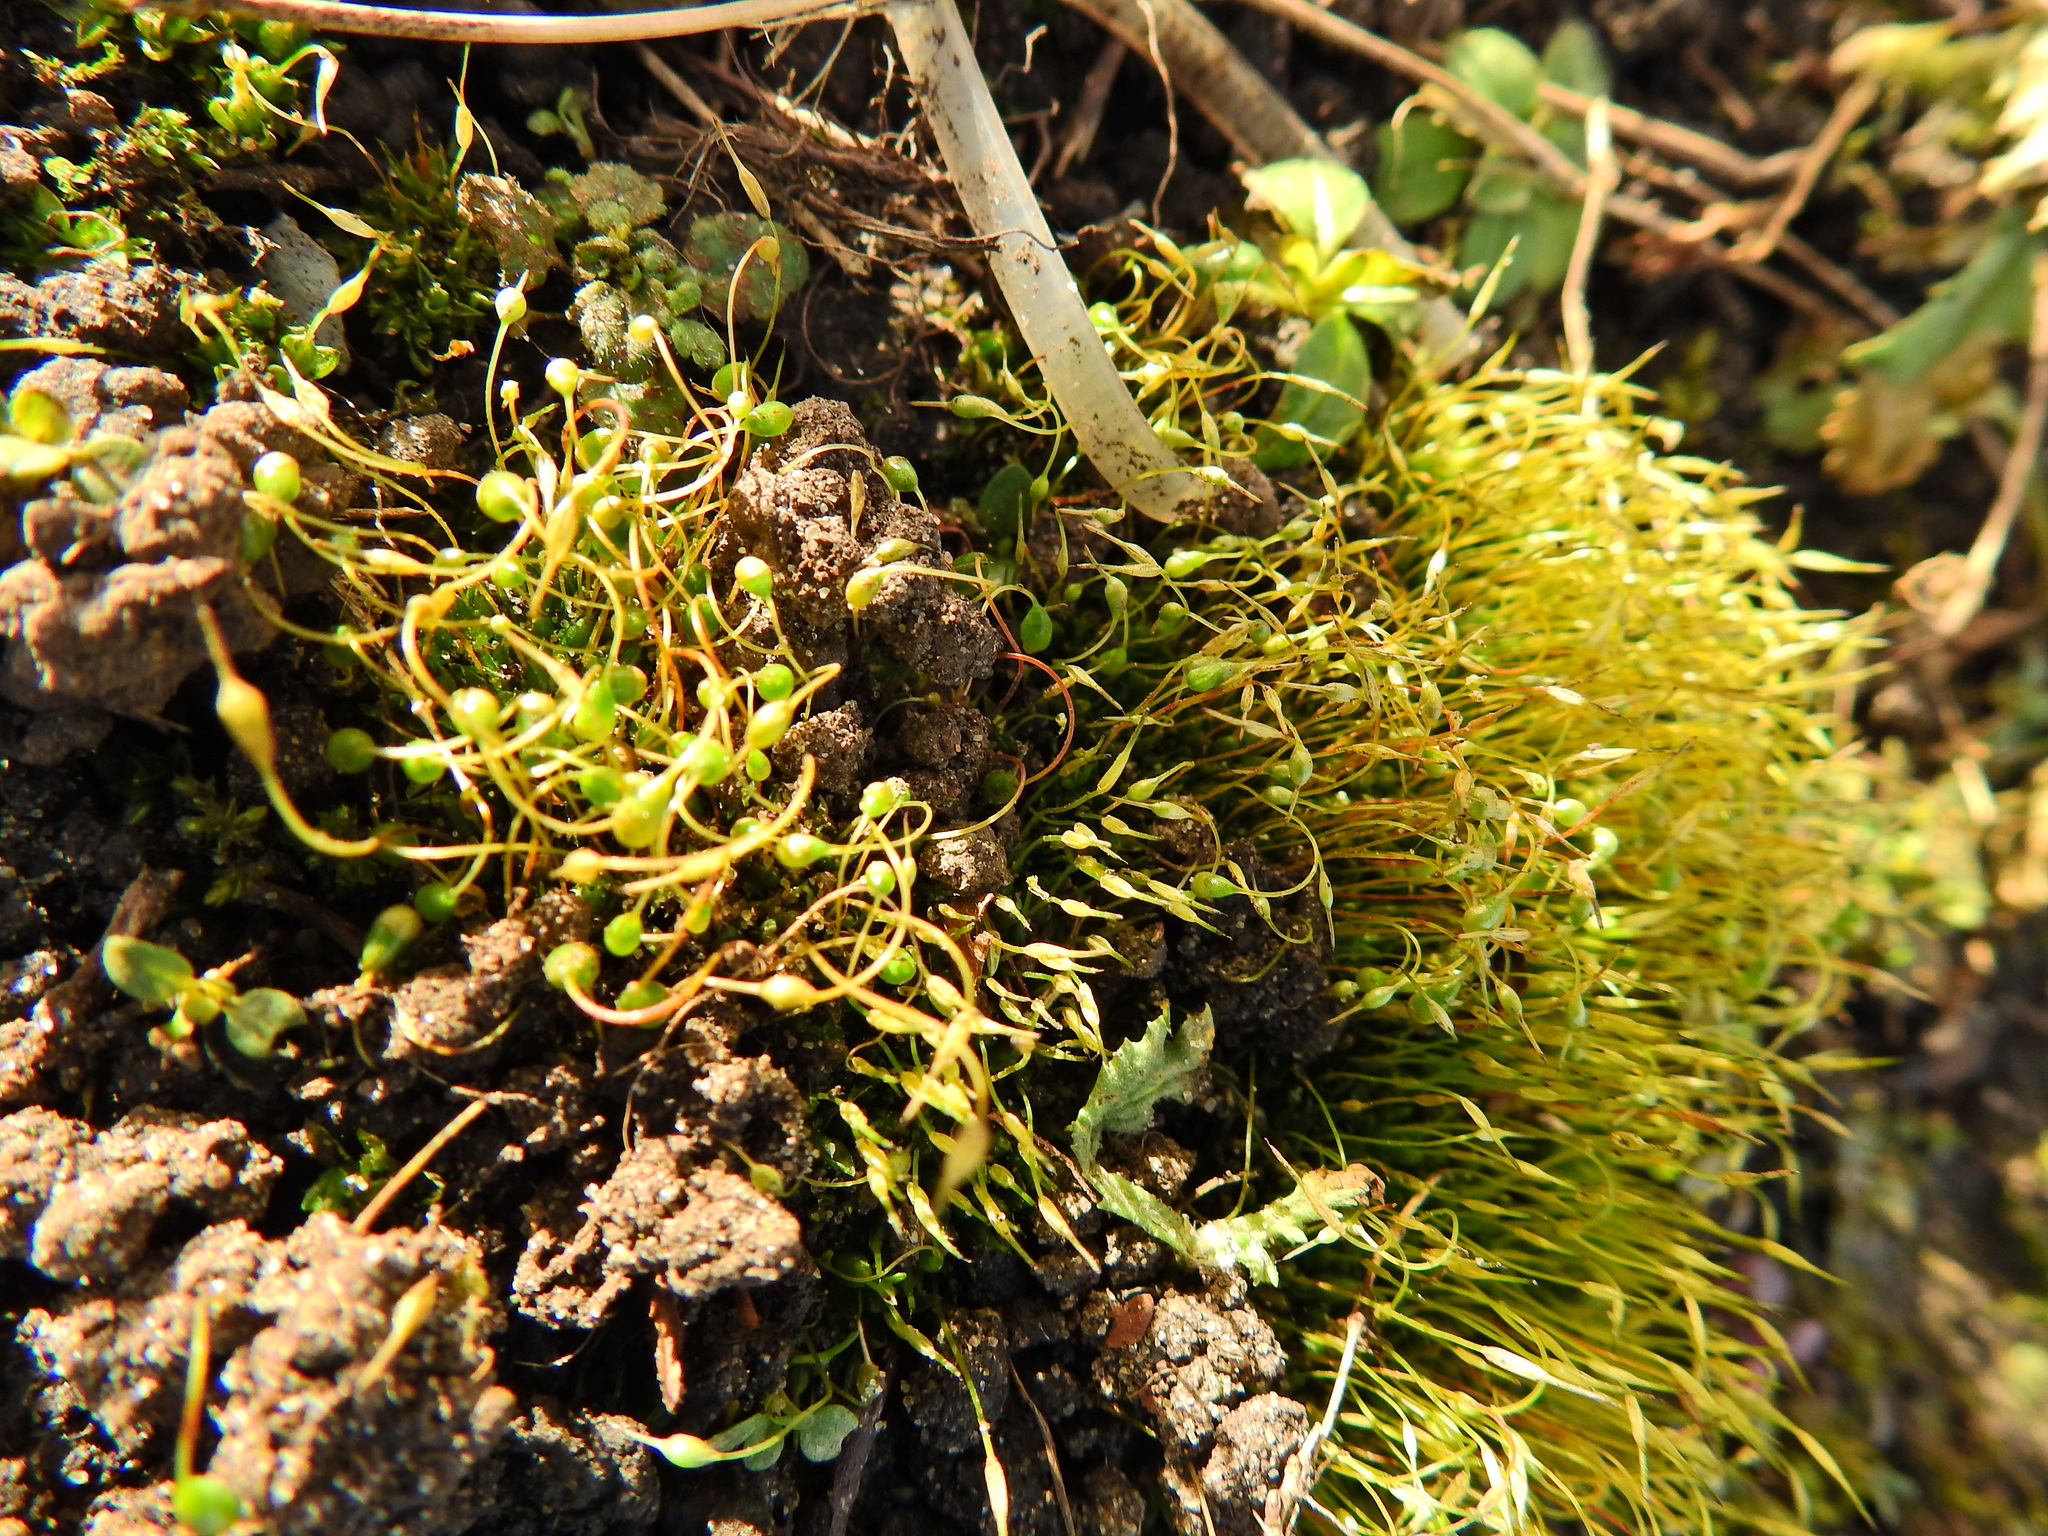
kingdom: Plantae
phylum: Bryophyta
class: Bryopsida
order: Funariales
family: Funariaceae
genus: Funaria
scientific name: Funaria hygrometrica
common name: Common cord moss
